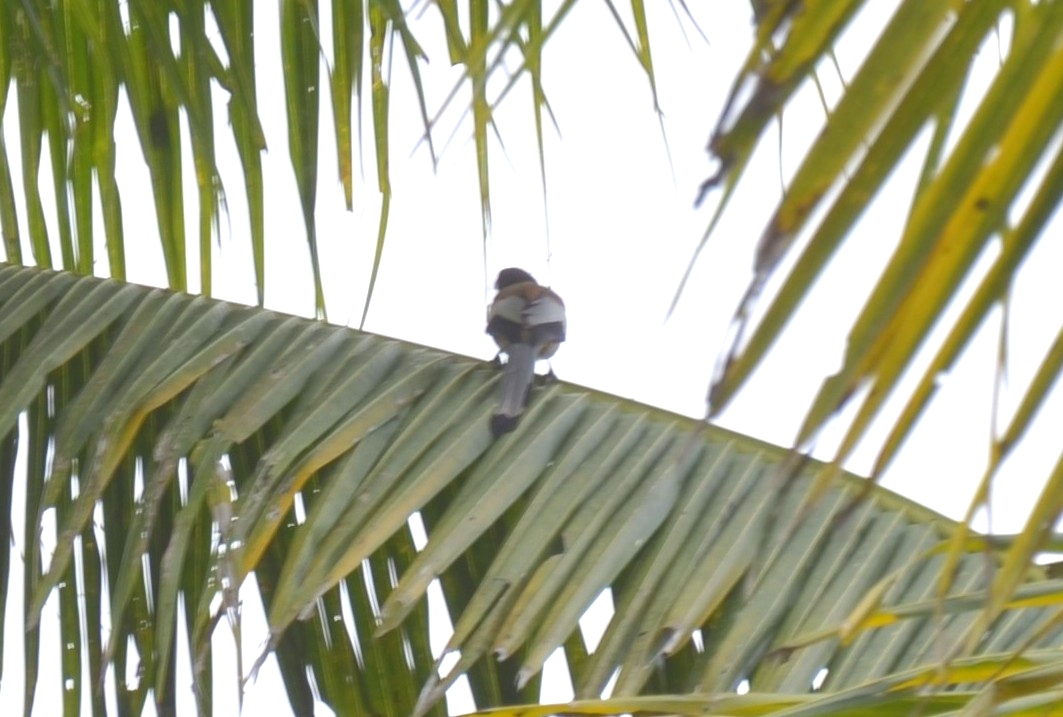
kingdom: Animalia
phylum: Chordata
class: Aves
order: Passeriformes
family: Corvidae
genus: Dendrocitta
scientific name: Dendrocitta vagabunda
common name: Rufous treepie
